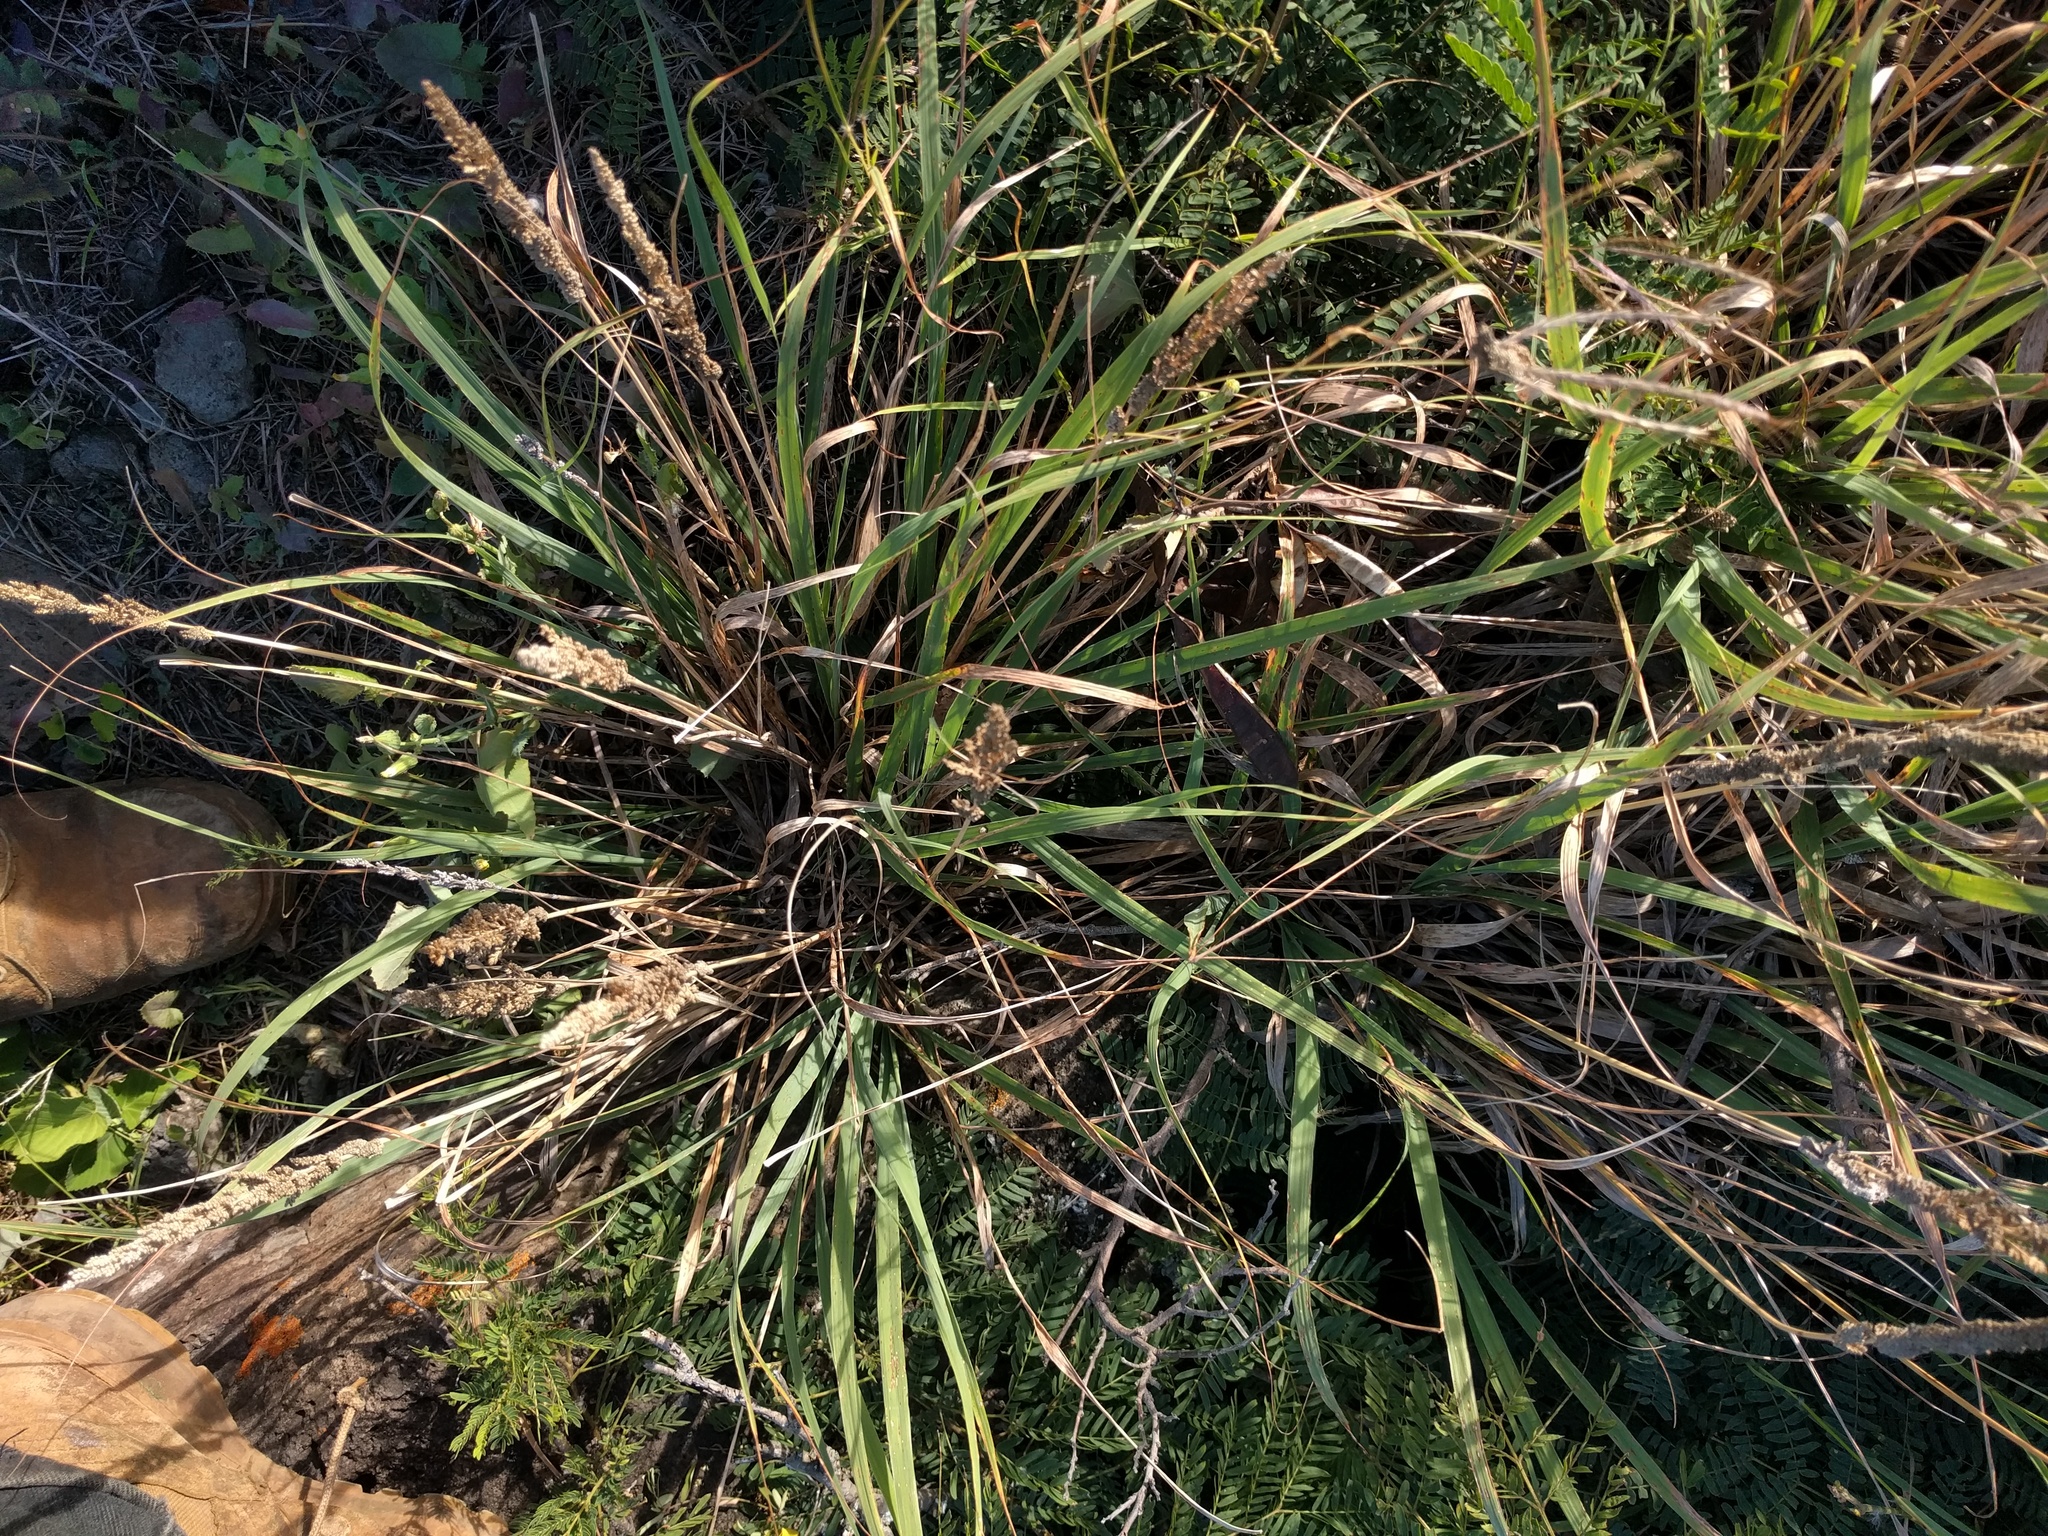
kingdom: Plantae
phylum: Tracheophyta
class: Liliopsida
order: Poales
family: Poaceae
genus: Eragrostis
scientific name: Eragrostis variabilis
